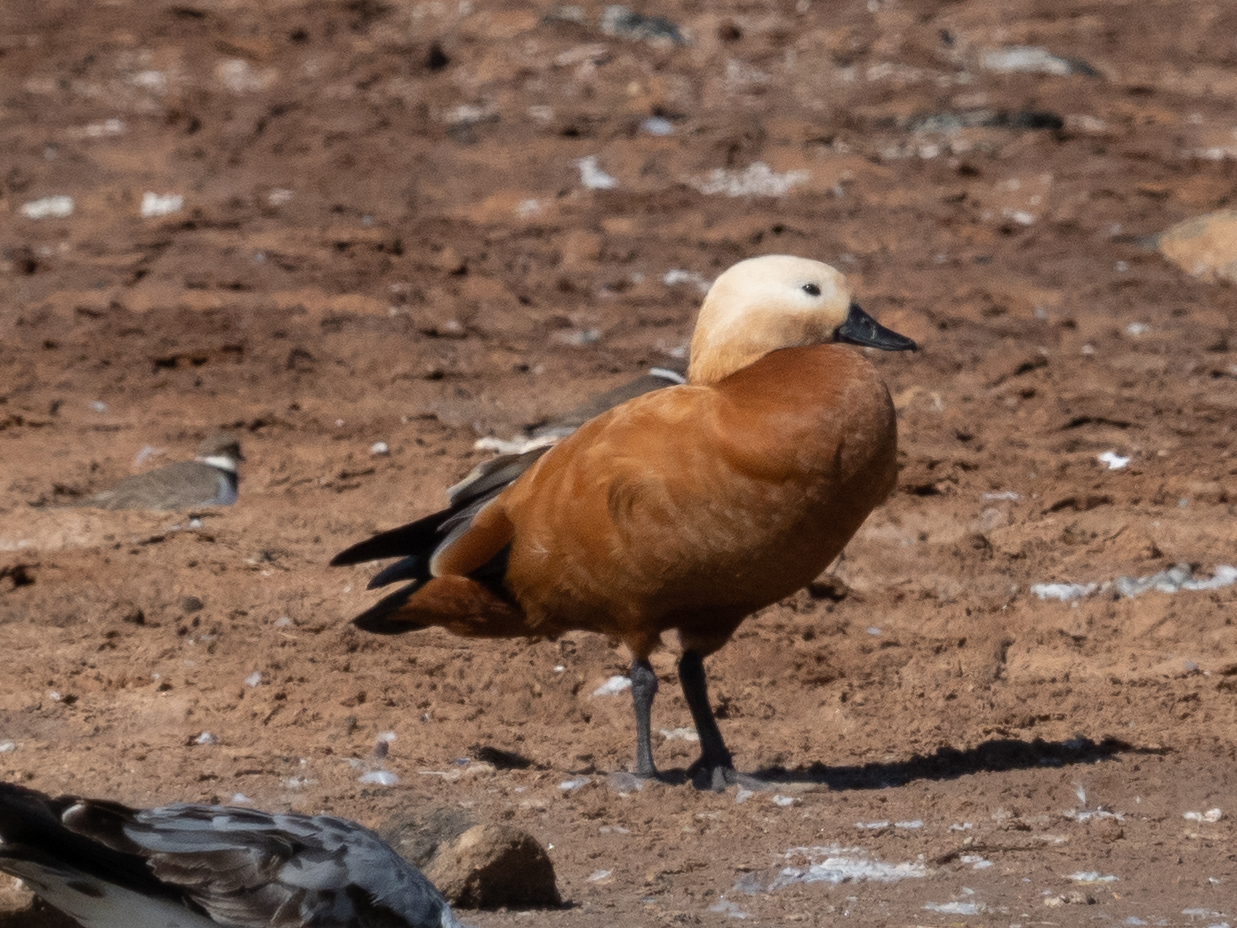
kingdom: Animalia
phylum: Chordata
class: Aves
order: Anseriformes
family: Anatidae
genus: Tadorna
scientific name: Tadorna ferruginea
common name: Ruddy shelduck
